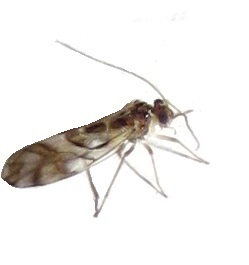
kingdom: Animalia
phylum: Arthropoda
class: Insecta
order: Psocodea
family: Stenopsocidae
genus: Graphopsocus
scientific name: Graphopsocus cruciatus
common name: Lizard bark louse
